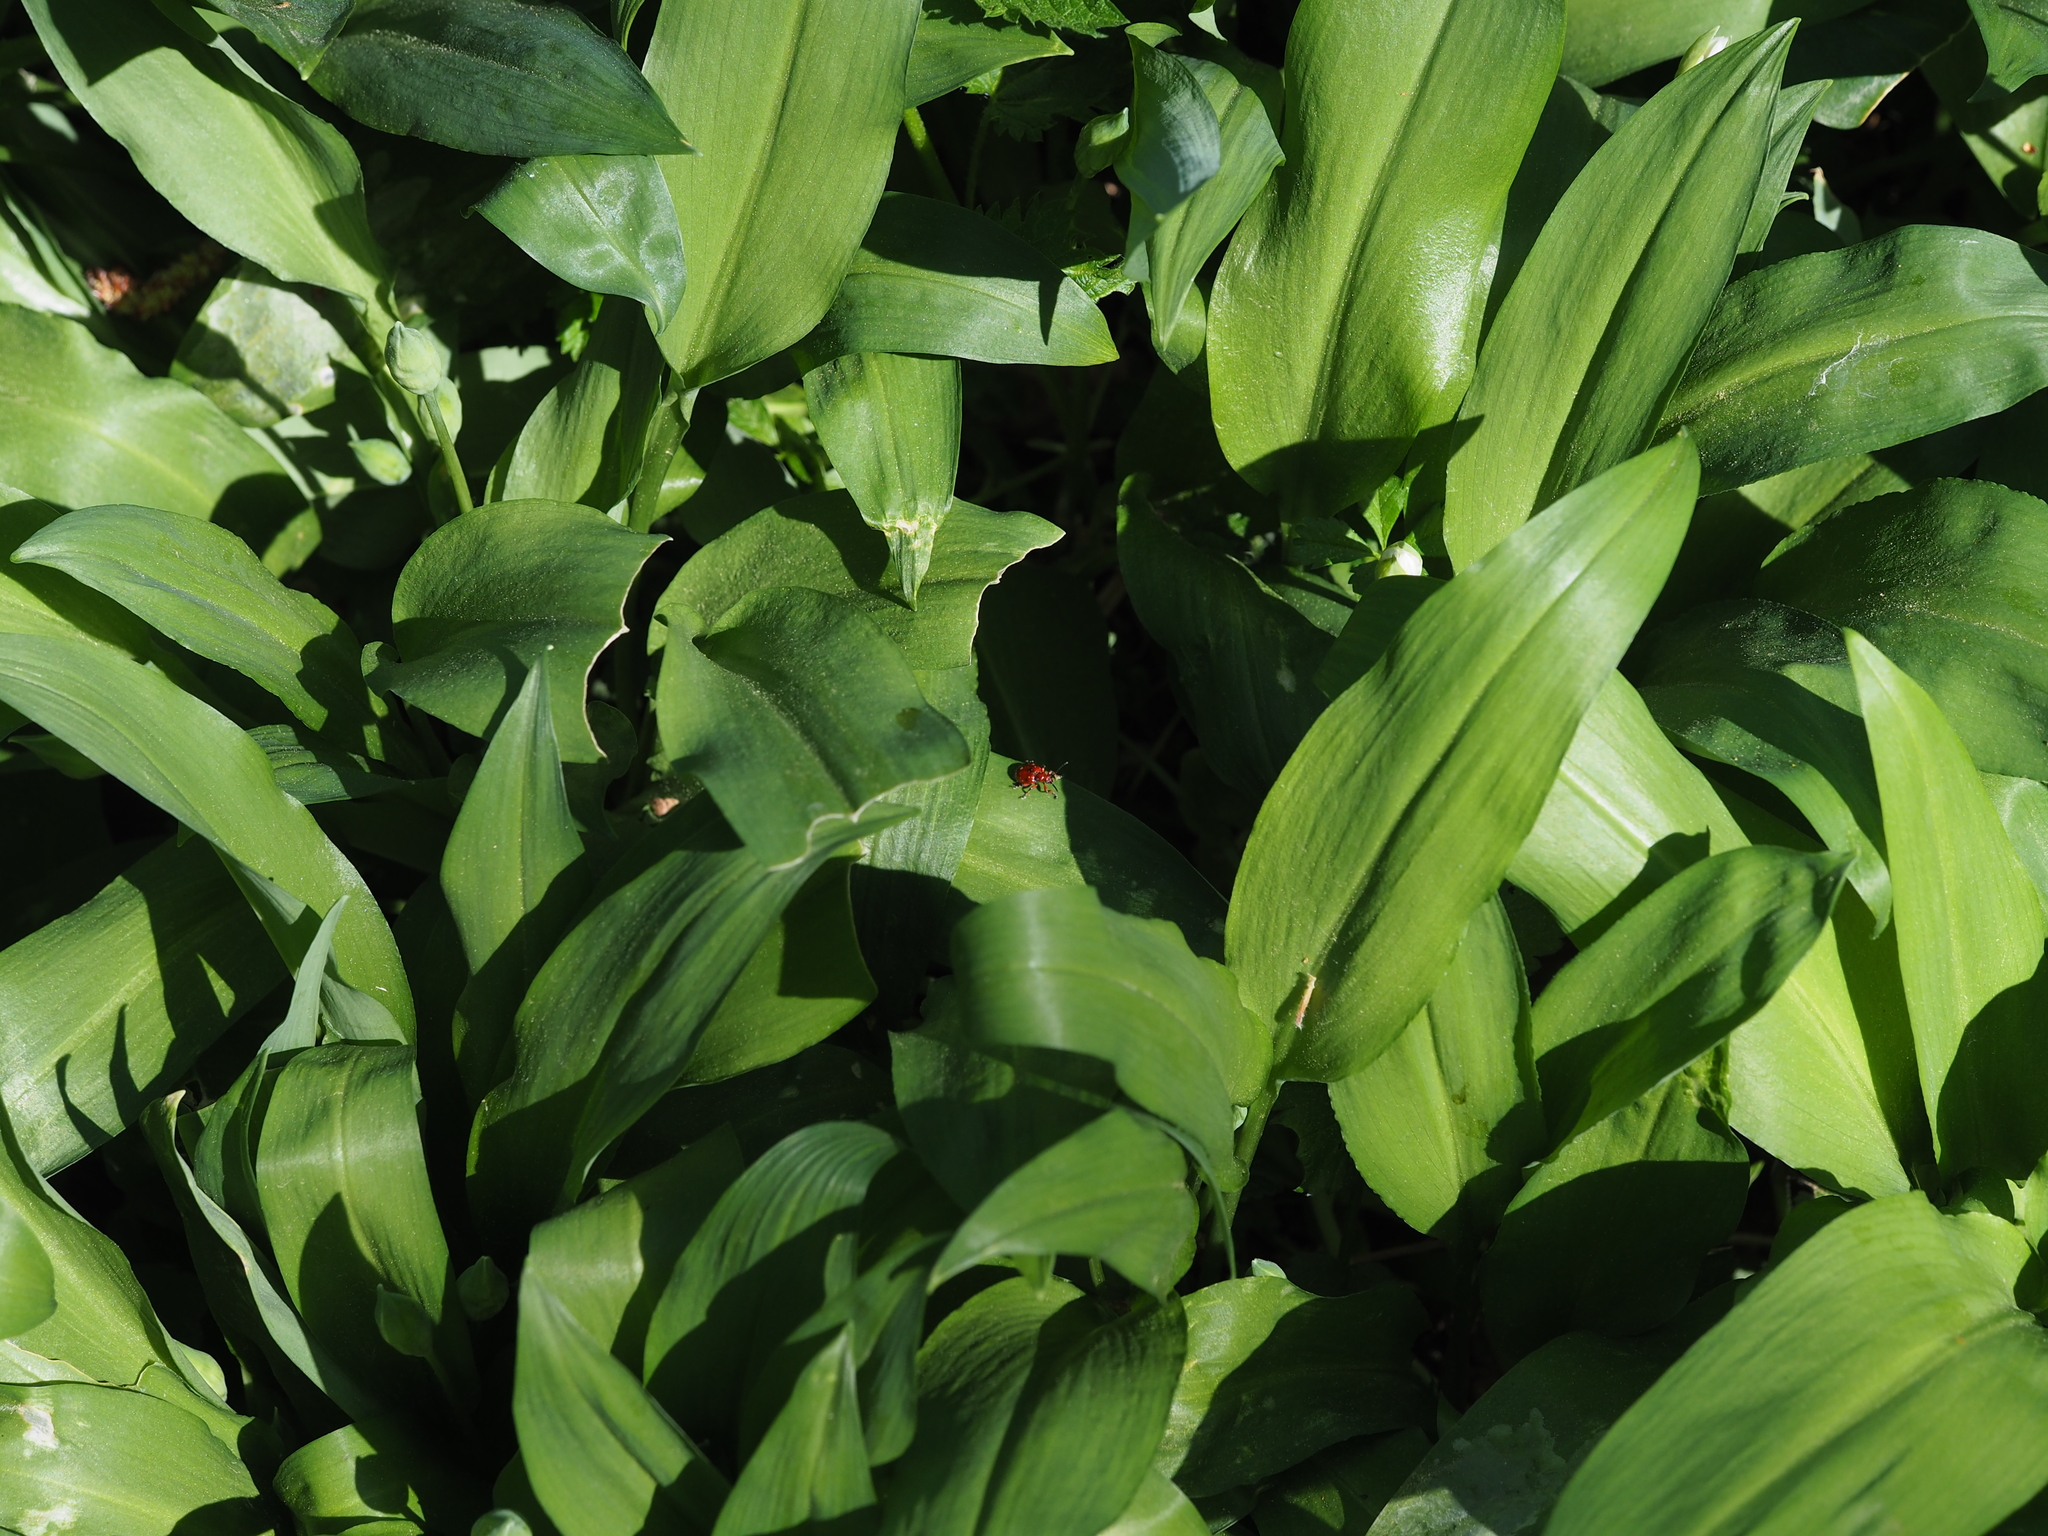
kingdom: Animalia
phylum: Arthropoda
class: Insecta
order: Coleoptera
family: Chrysomelidae
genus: Lilioceris
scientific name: Lilioceris merdigera
